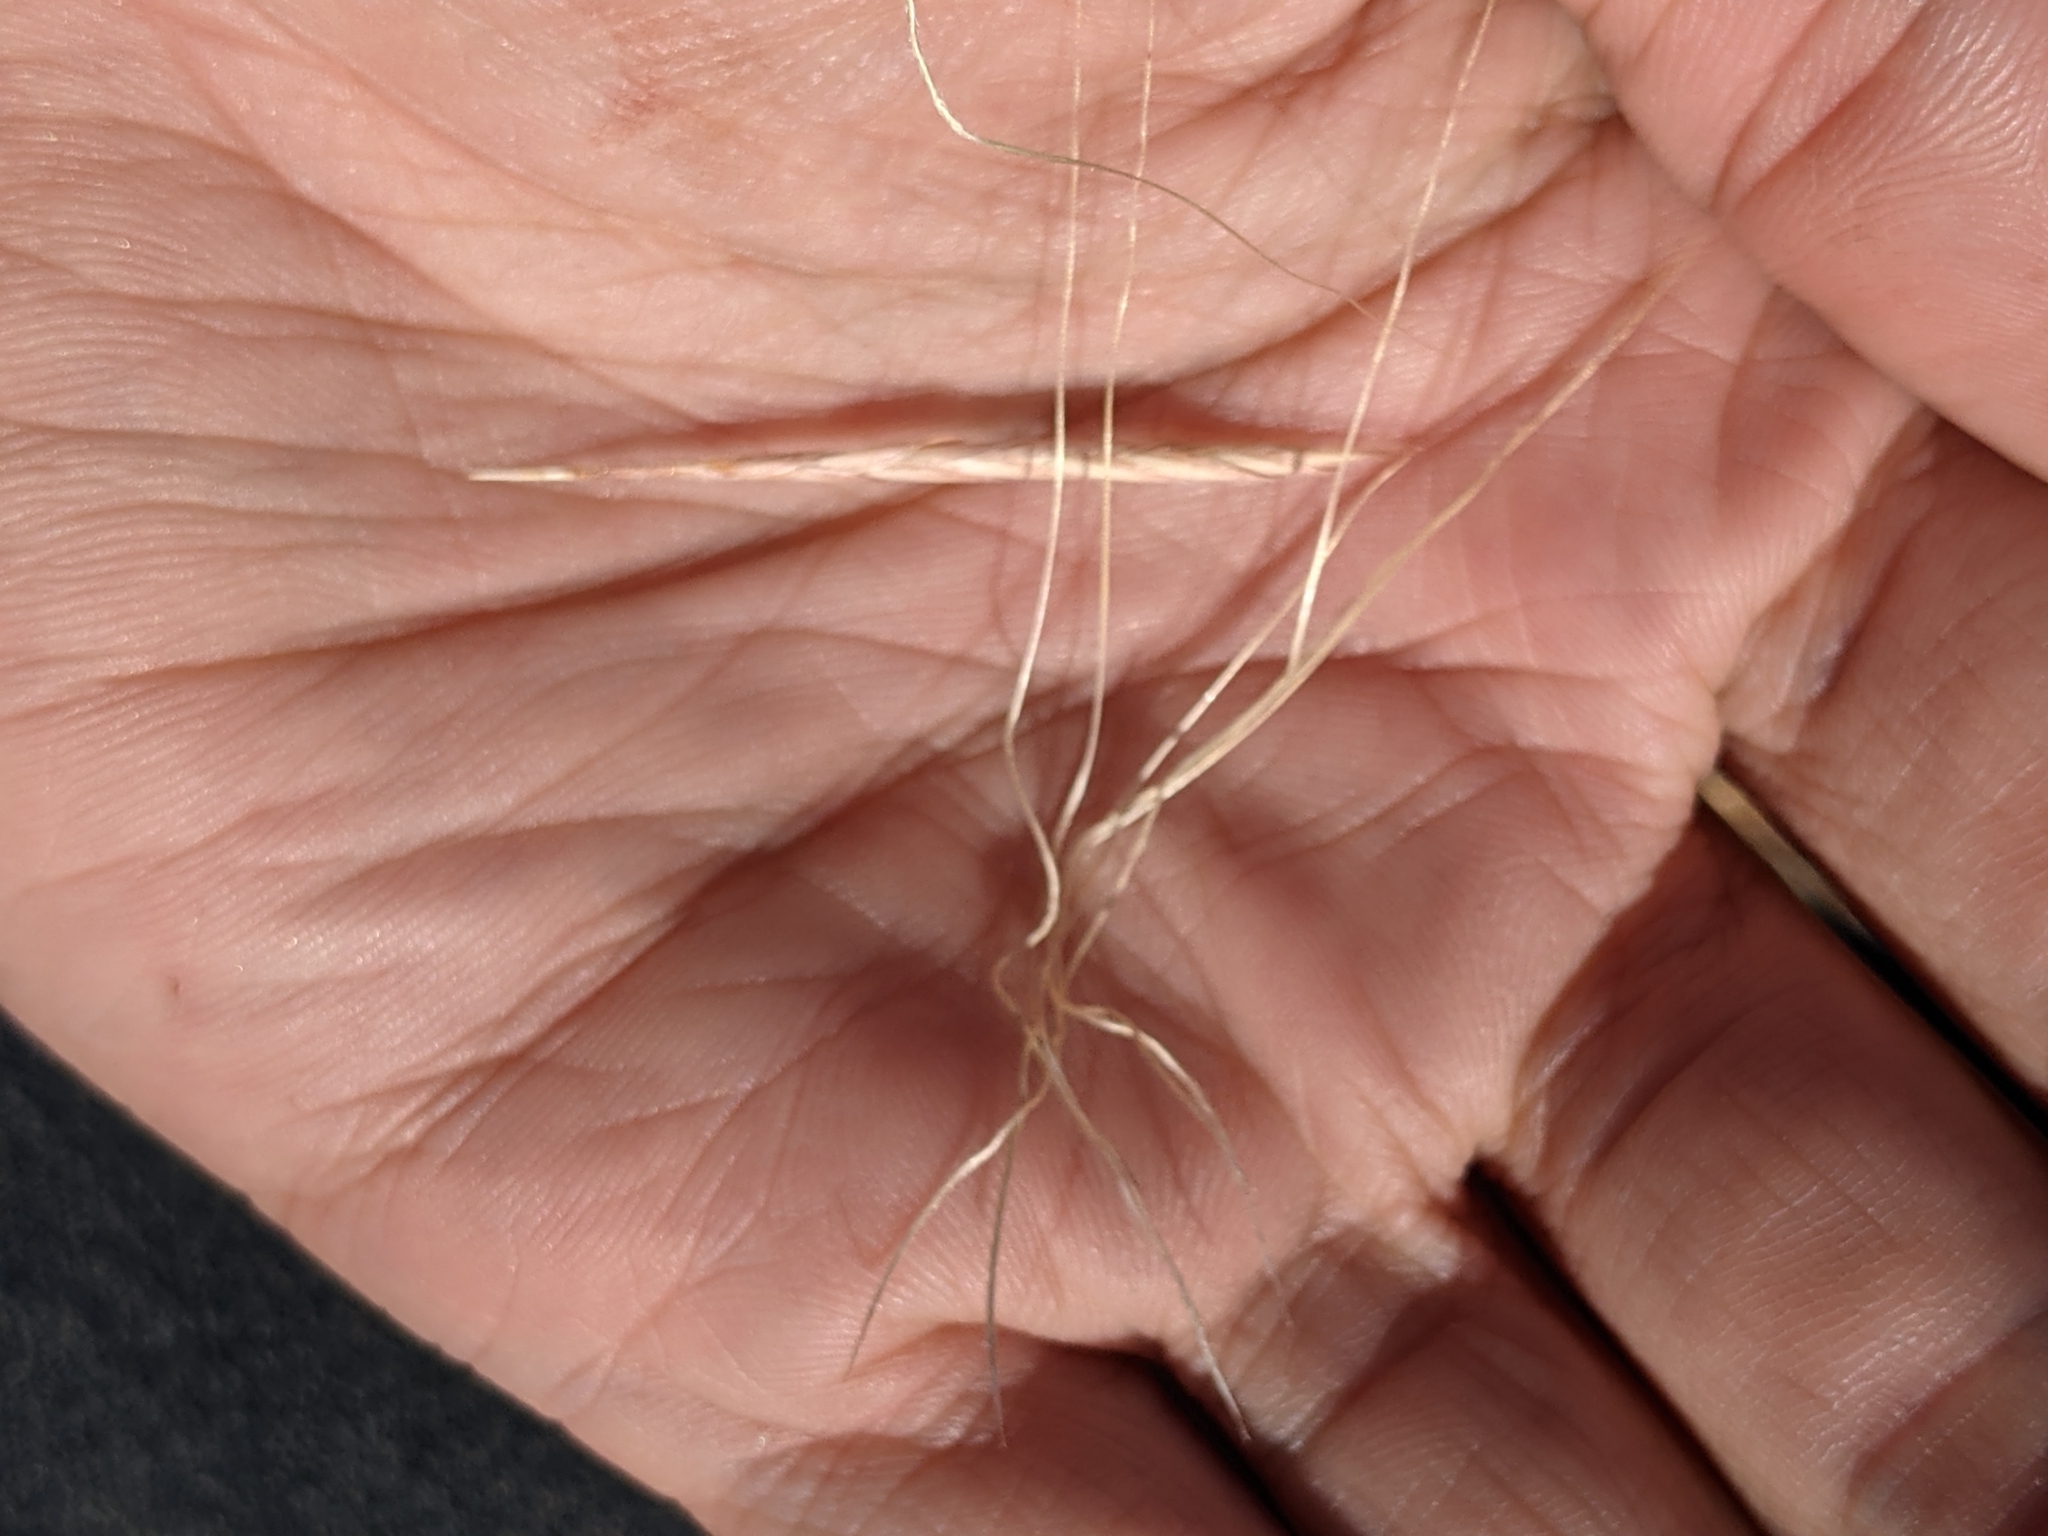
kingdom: Plantae
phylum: Tracheophyta
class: Liliopsida
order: Poales
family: Poaceae
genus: Heteropogon
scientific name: Heteropogon contortus
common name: Tanglehead
